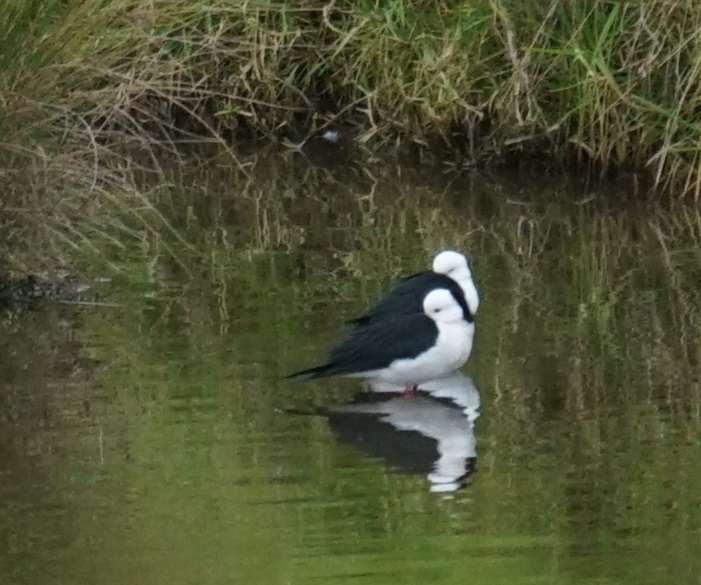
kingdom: Animalia
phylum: Chordata
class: Aves
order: Charadriiformes
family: Recurvirostridae
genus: Himantopus
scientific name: Himantopus leucocephalus
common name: White-headed stilt
